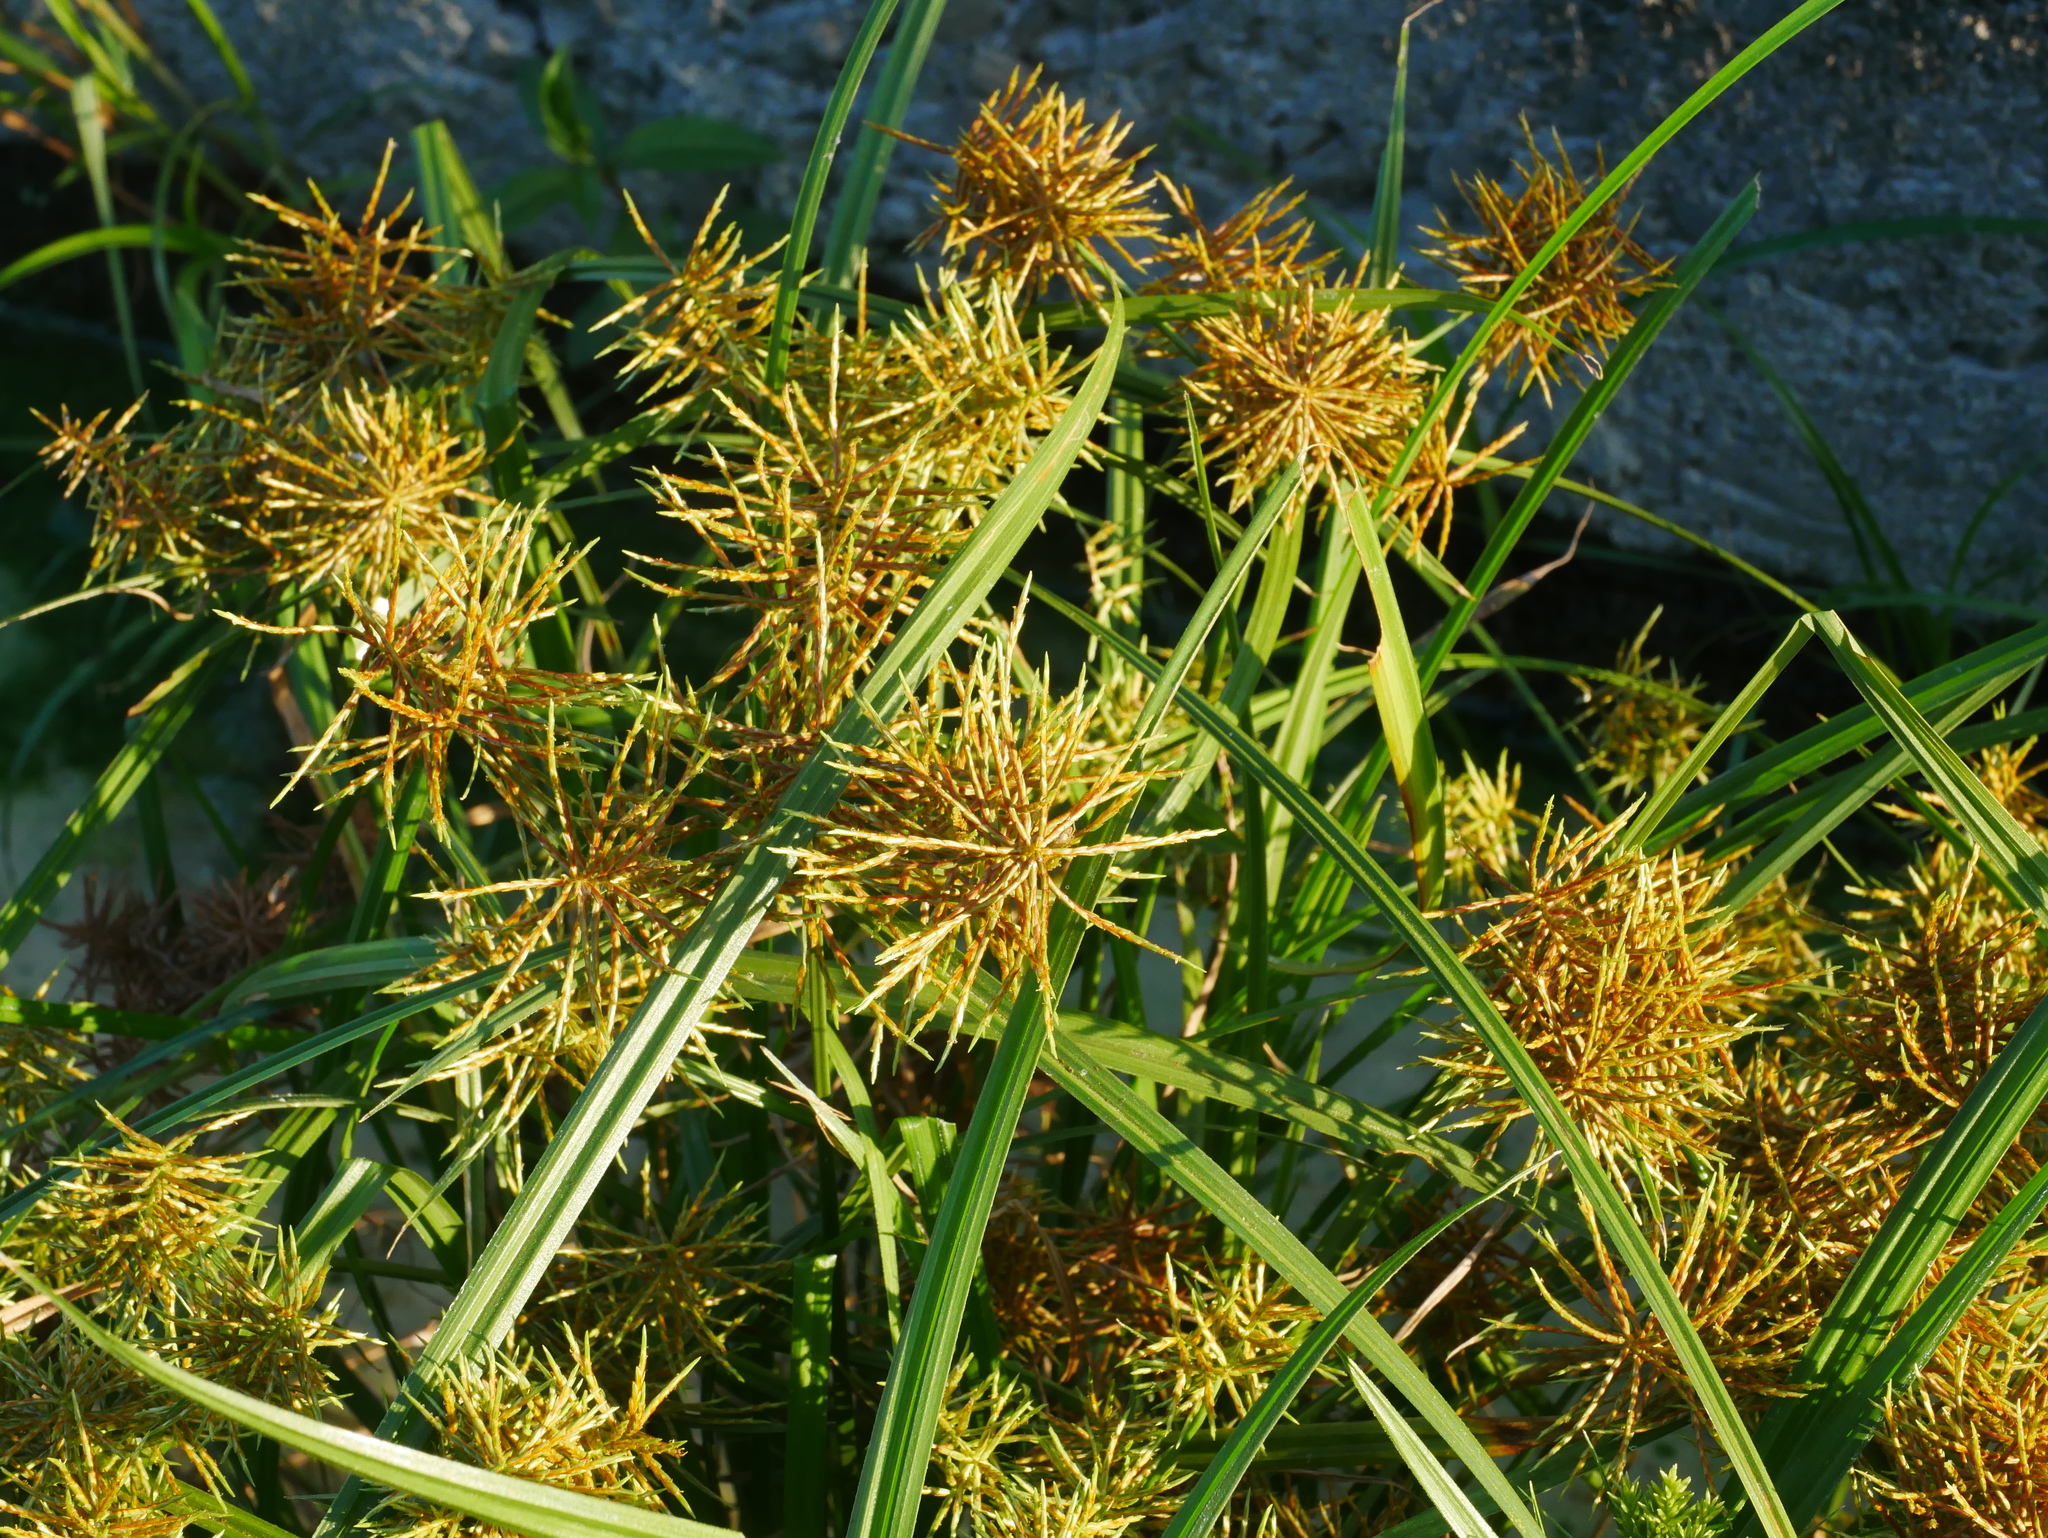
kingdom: Plantae
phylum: Tracheophyta
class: Liliopsida
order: Poales
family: Cyperaceae
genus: Cyperus
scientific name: Cyperus odoratus
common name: Fragrant flatsedge
